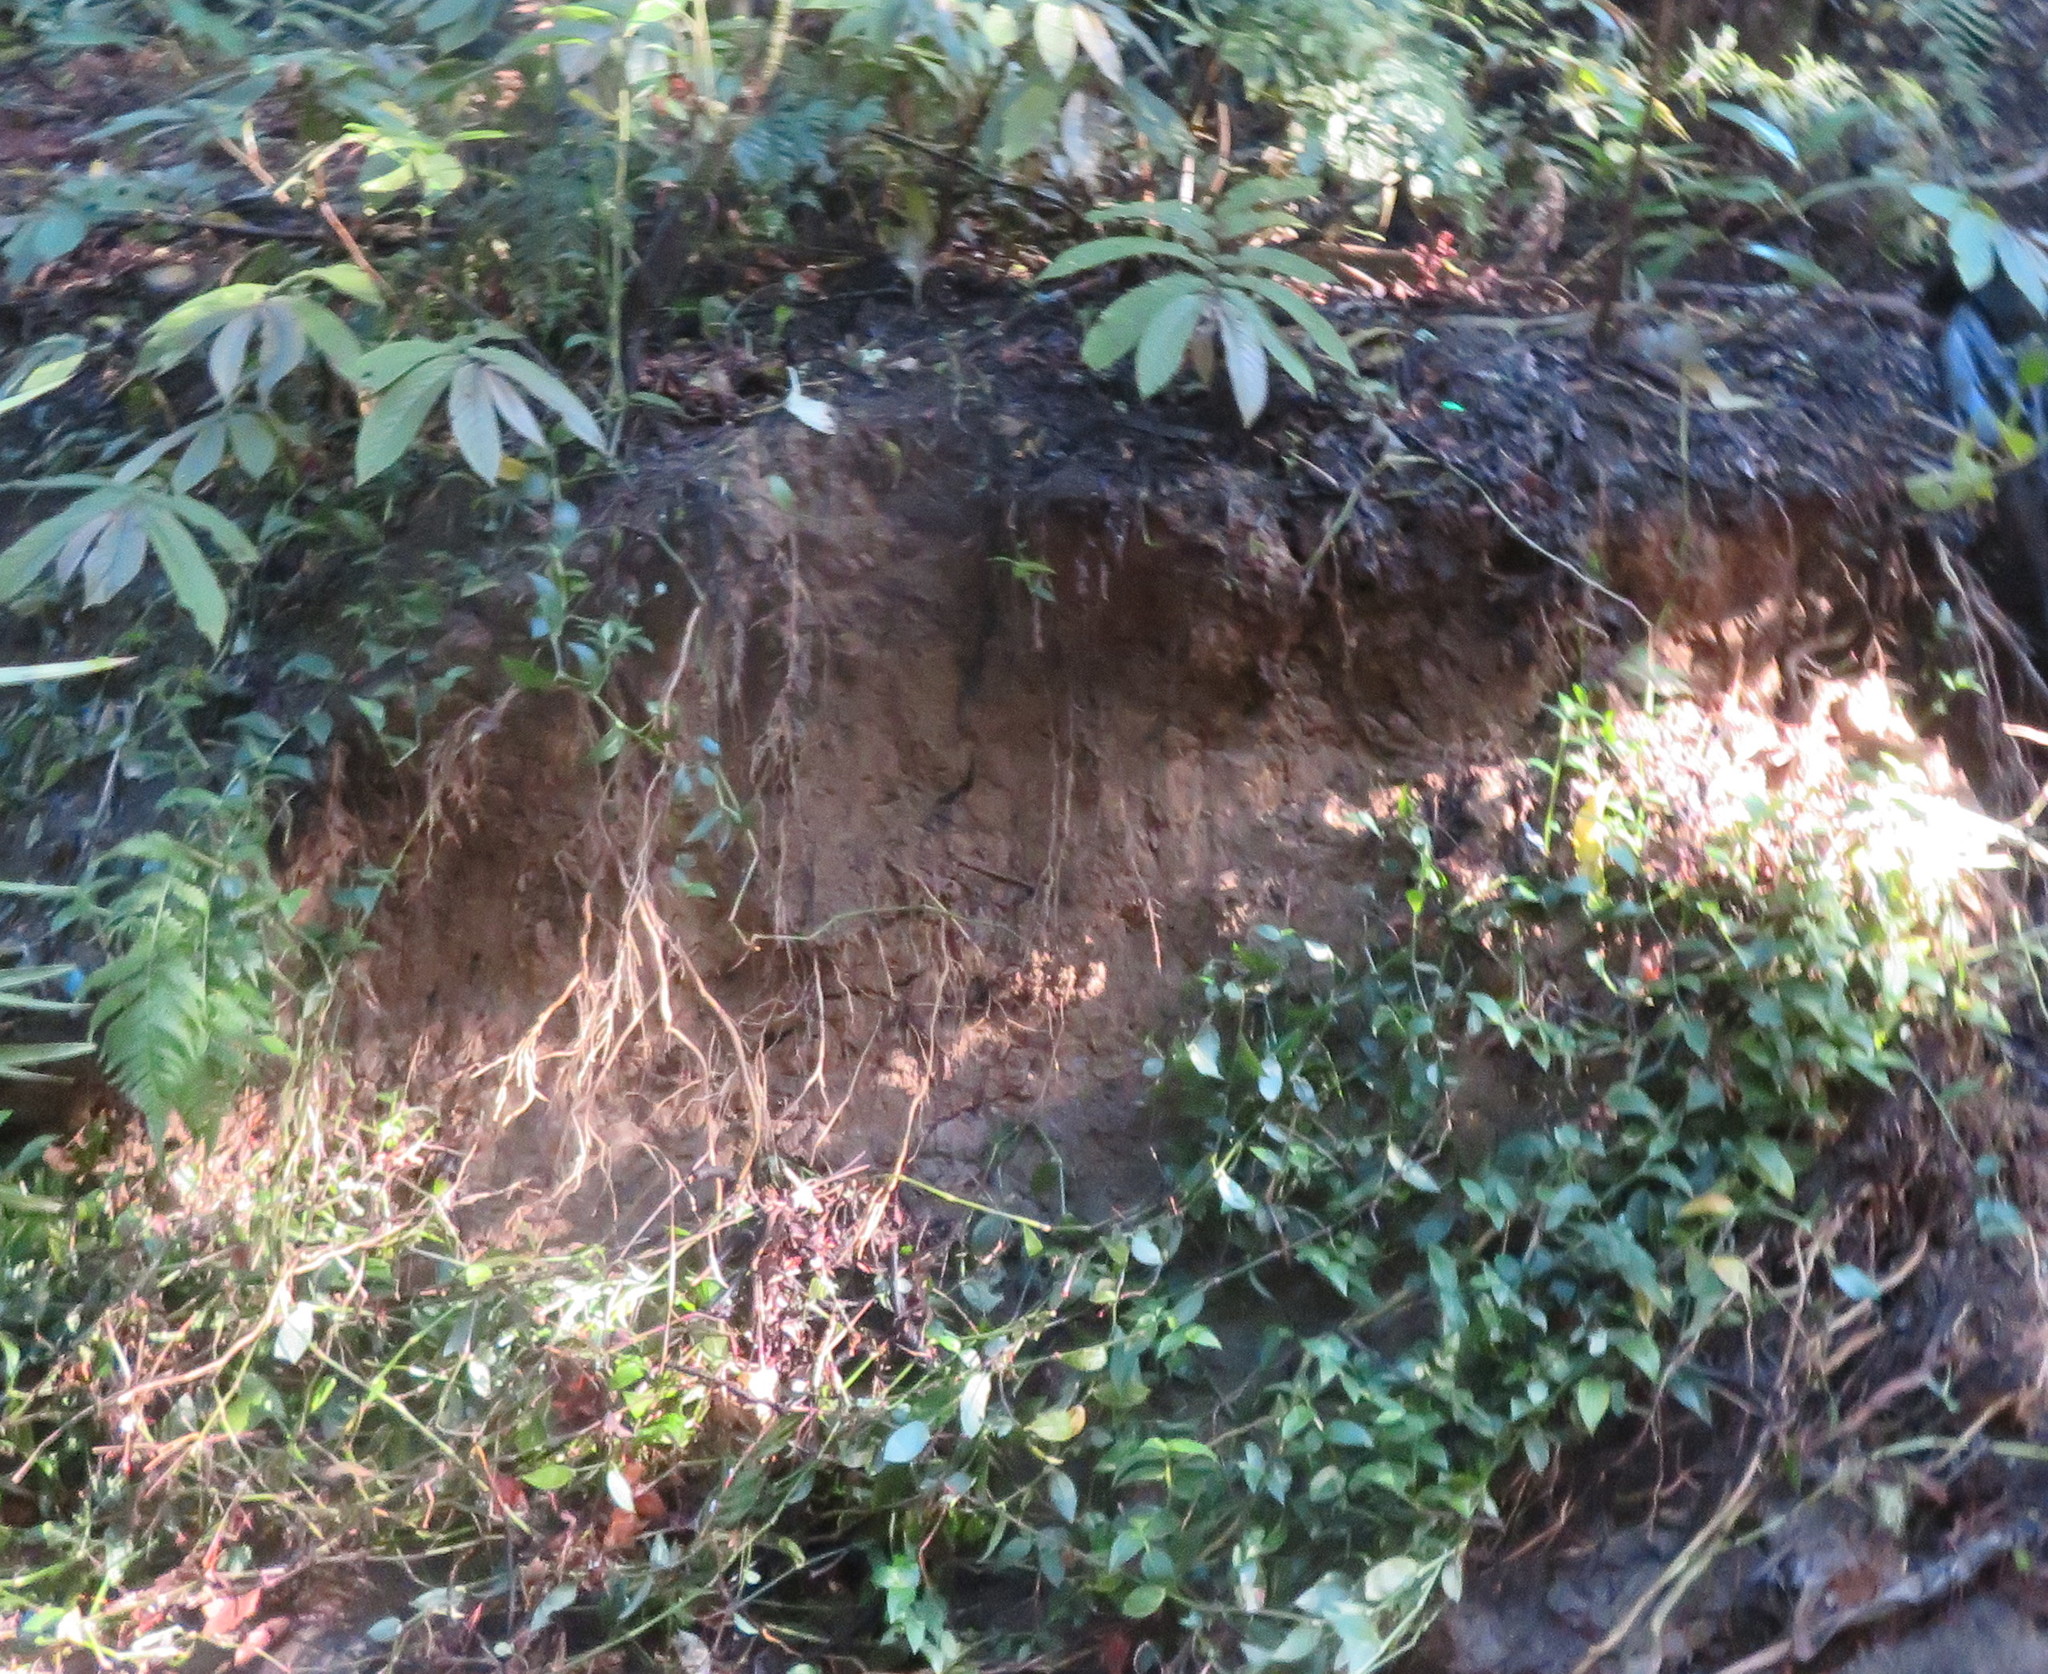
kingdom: Plantae
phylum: Tracheophyta
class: Liliopsida
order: Commelinales
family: Commelinaceae
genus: Tradescantia
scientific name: Tradescantia fluminensis
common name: Wandering-jew
